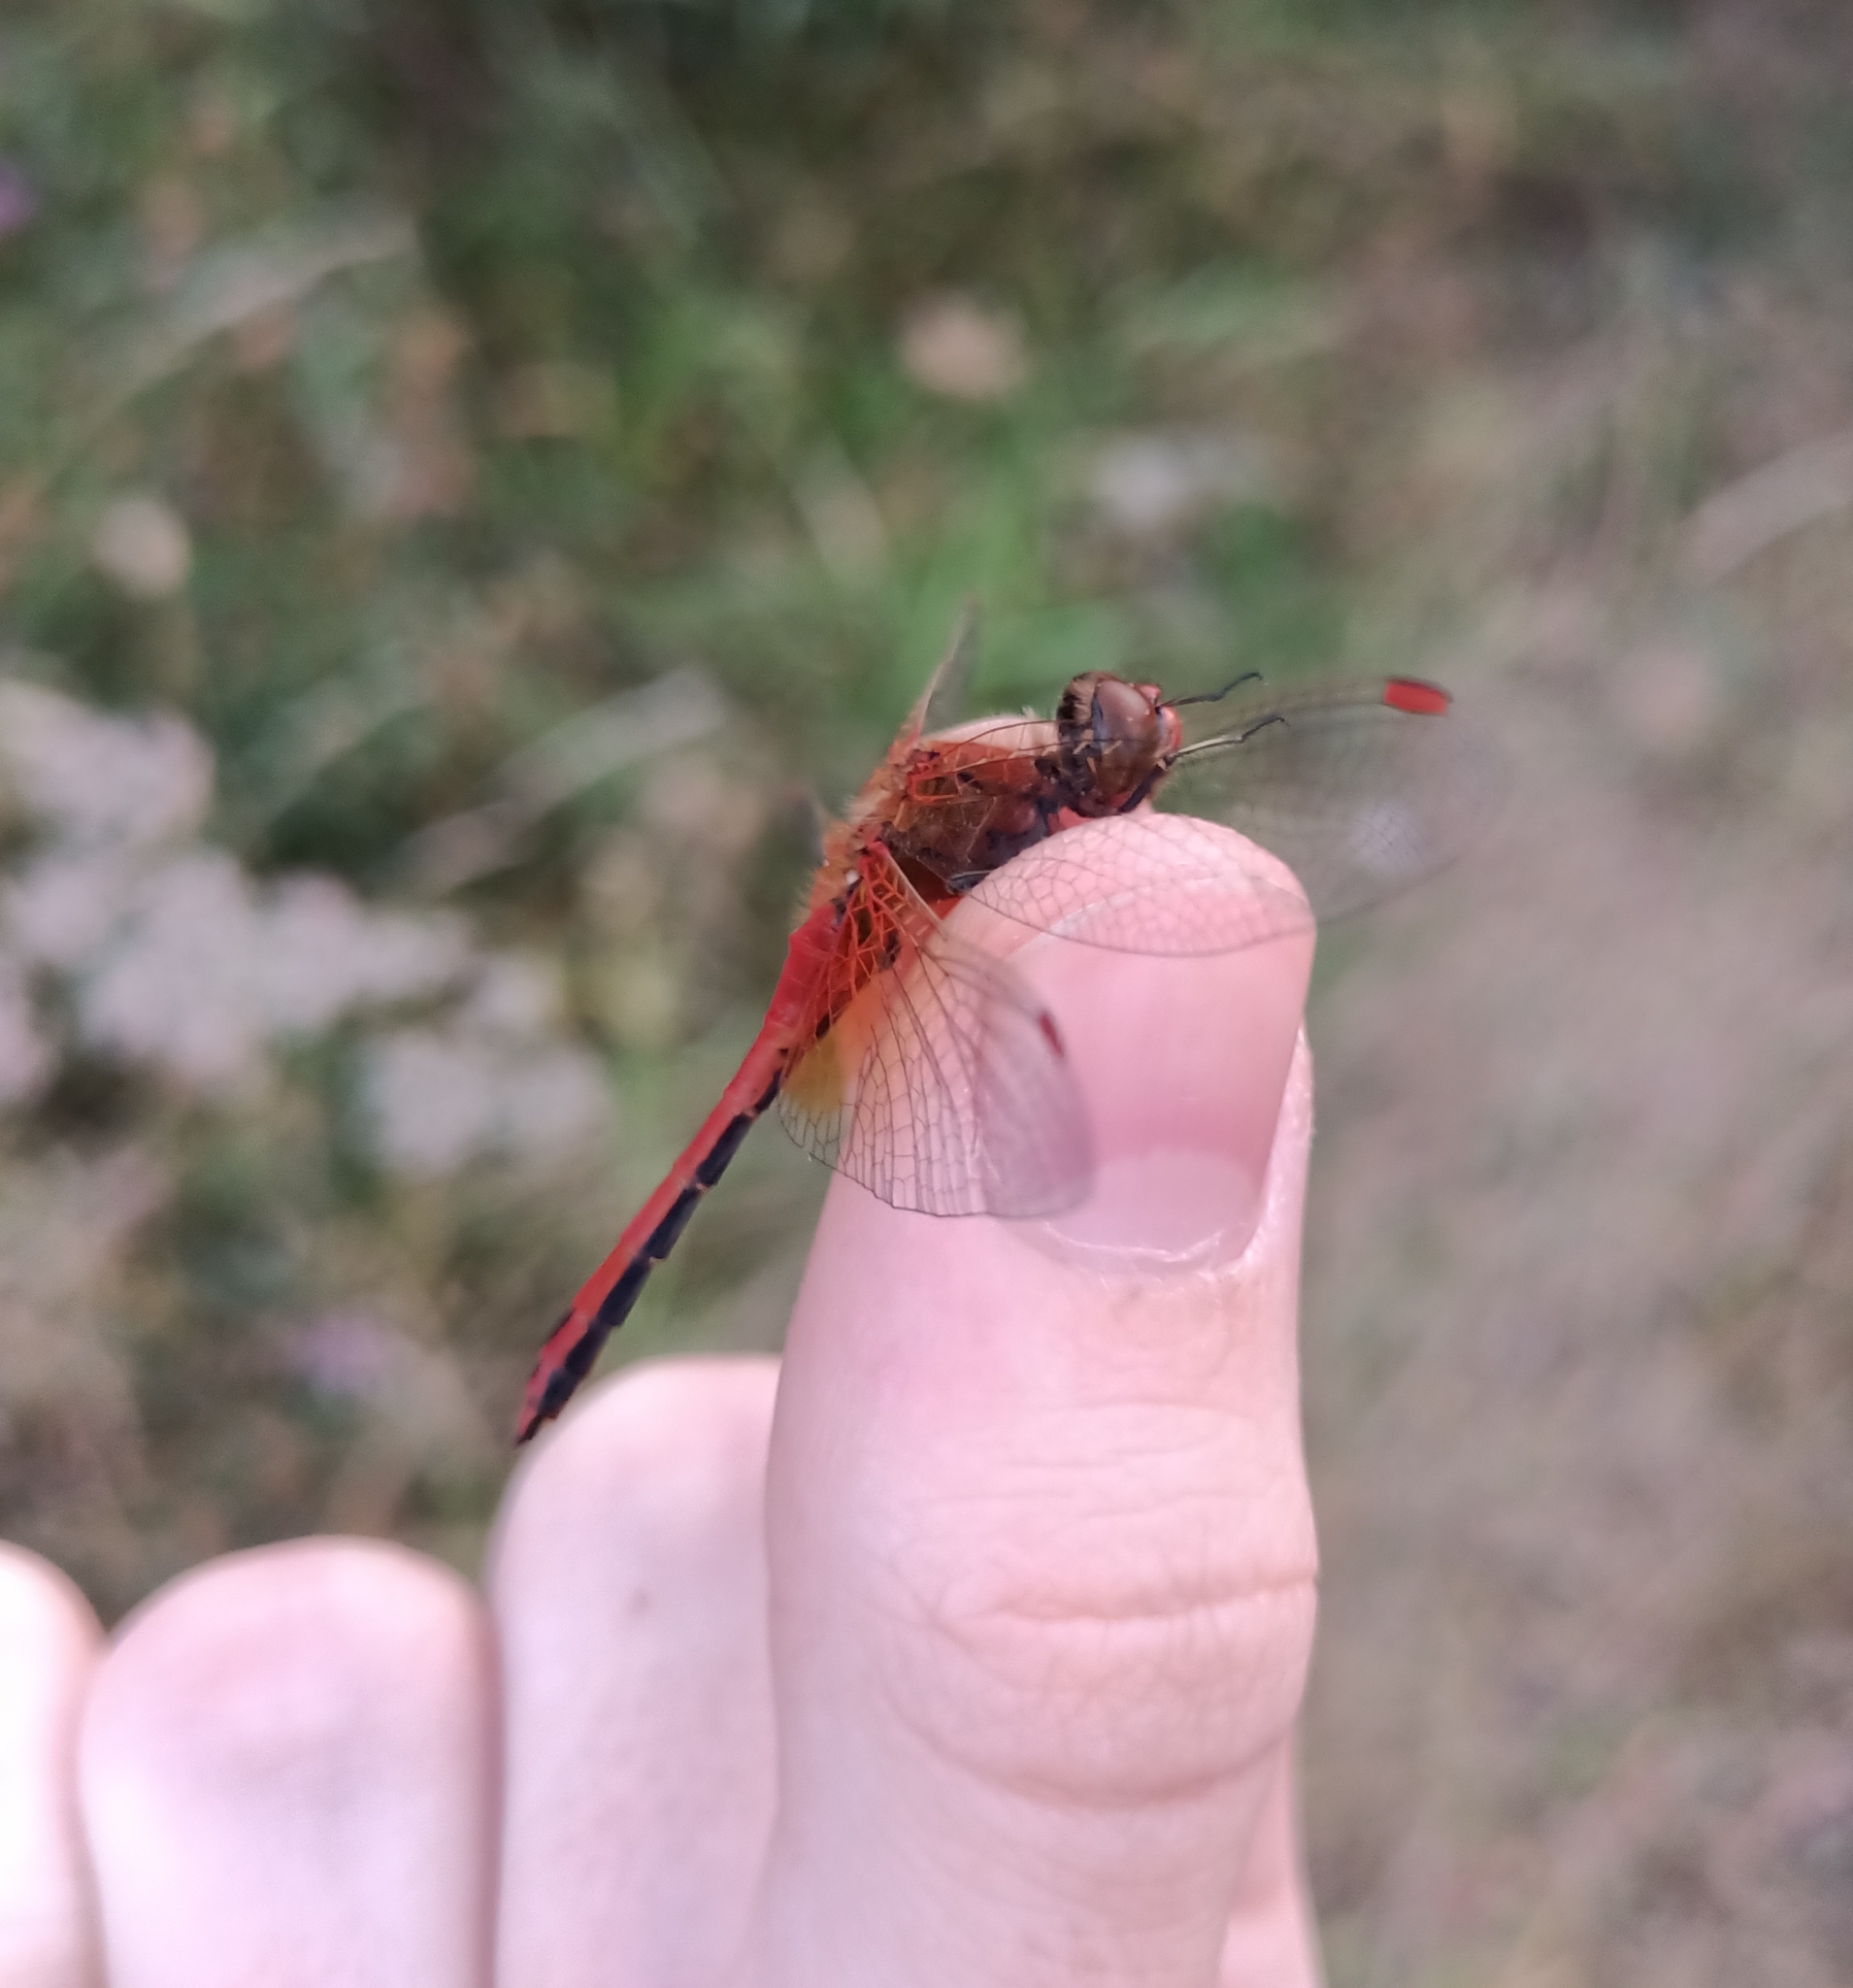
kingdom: Animalia
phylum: Arthropoda
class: Insecta
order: Odonata
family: Libellulidae
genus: Sympetrum
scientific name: Sympetrum flaveolum
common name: Yellow-winged darter
